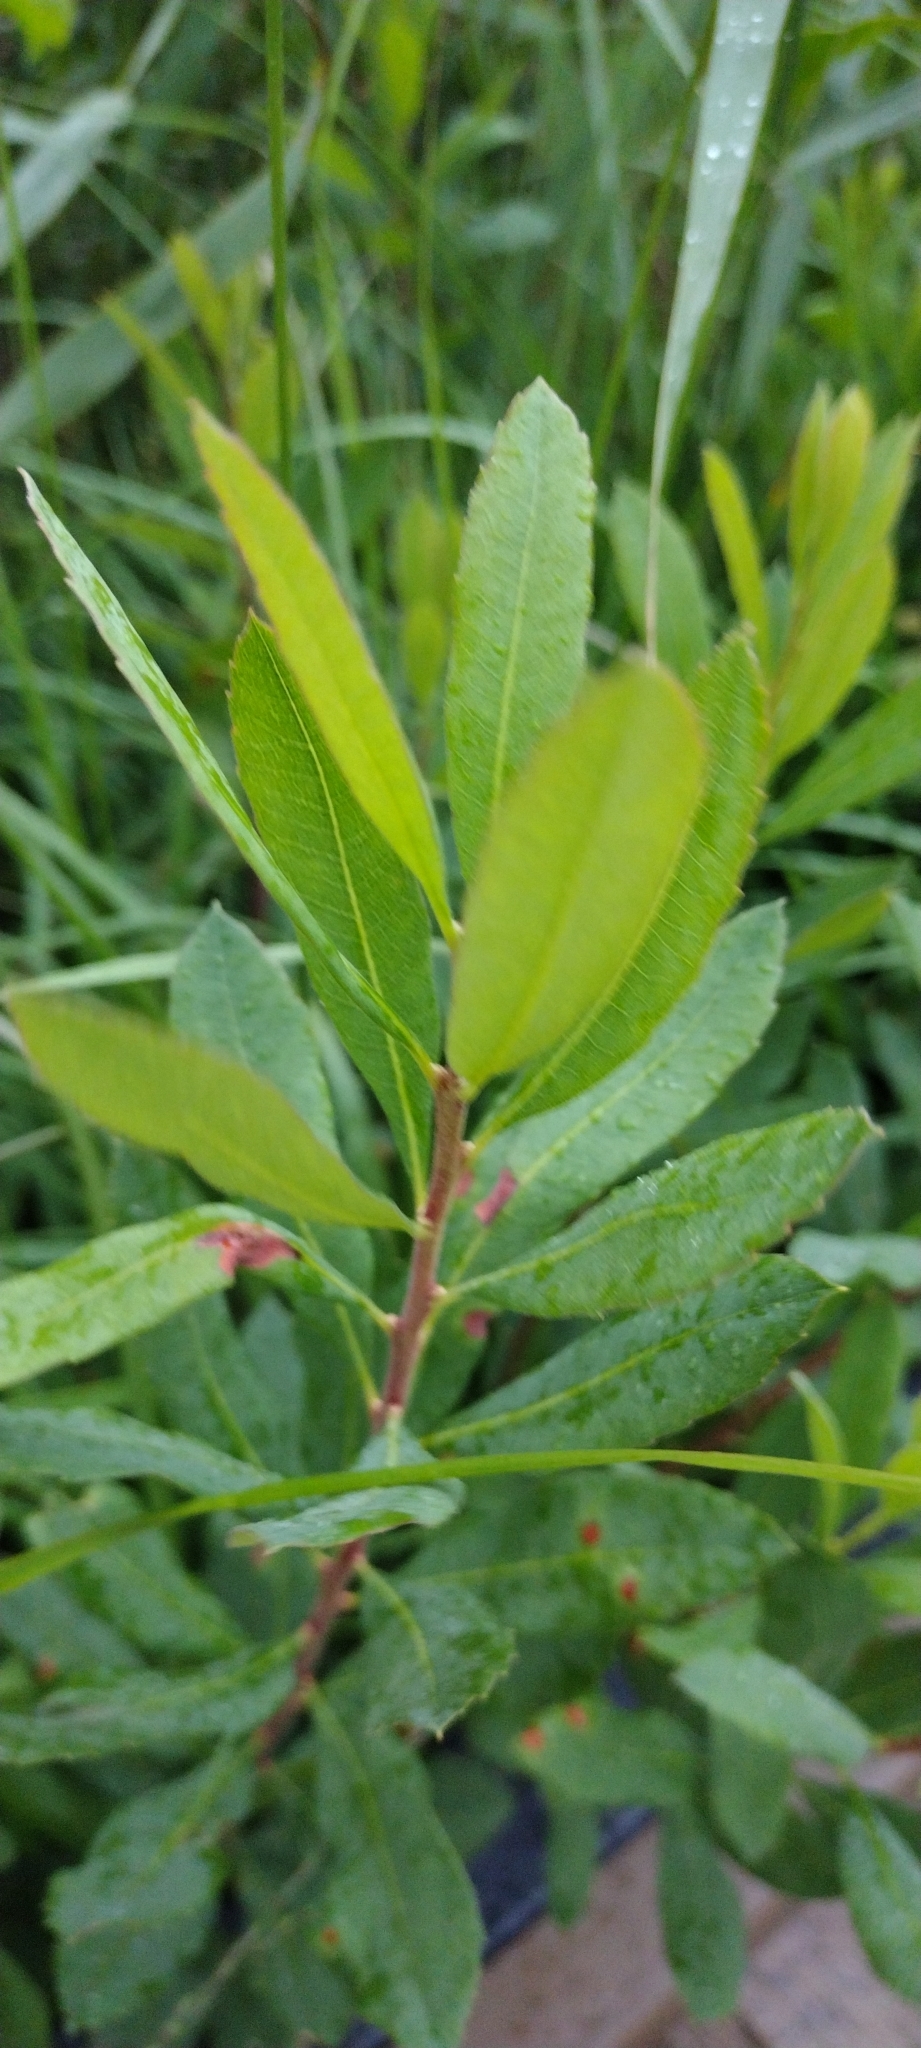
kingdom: Plantae
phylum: Tracheophyta
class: Magnoliopsida
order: Fagales
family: Myricaceae
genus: Myrica
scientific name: Myrica gale
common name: Sweet gale
